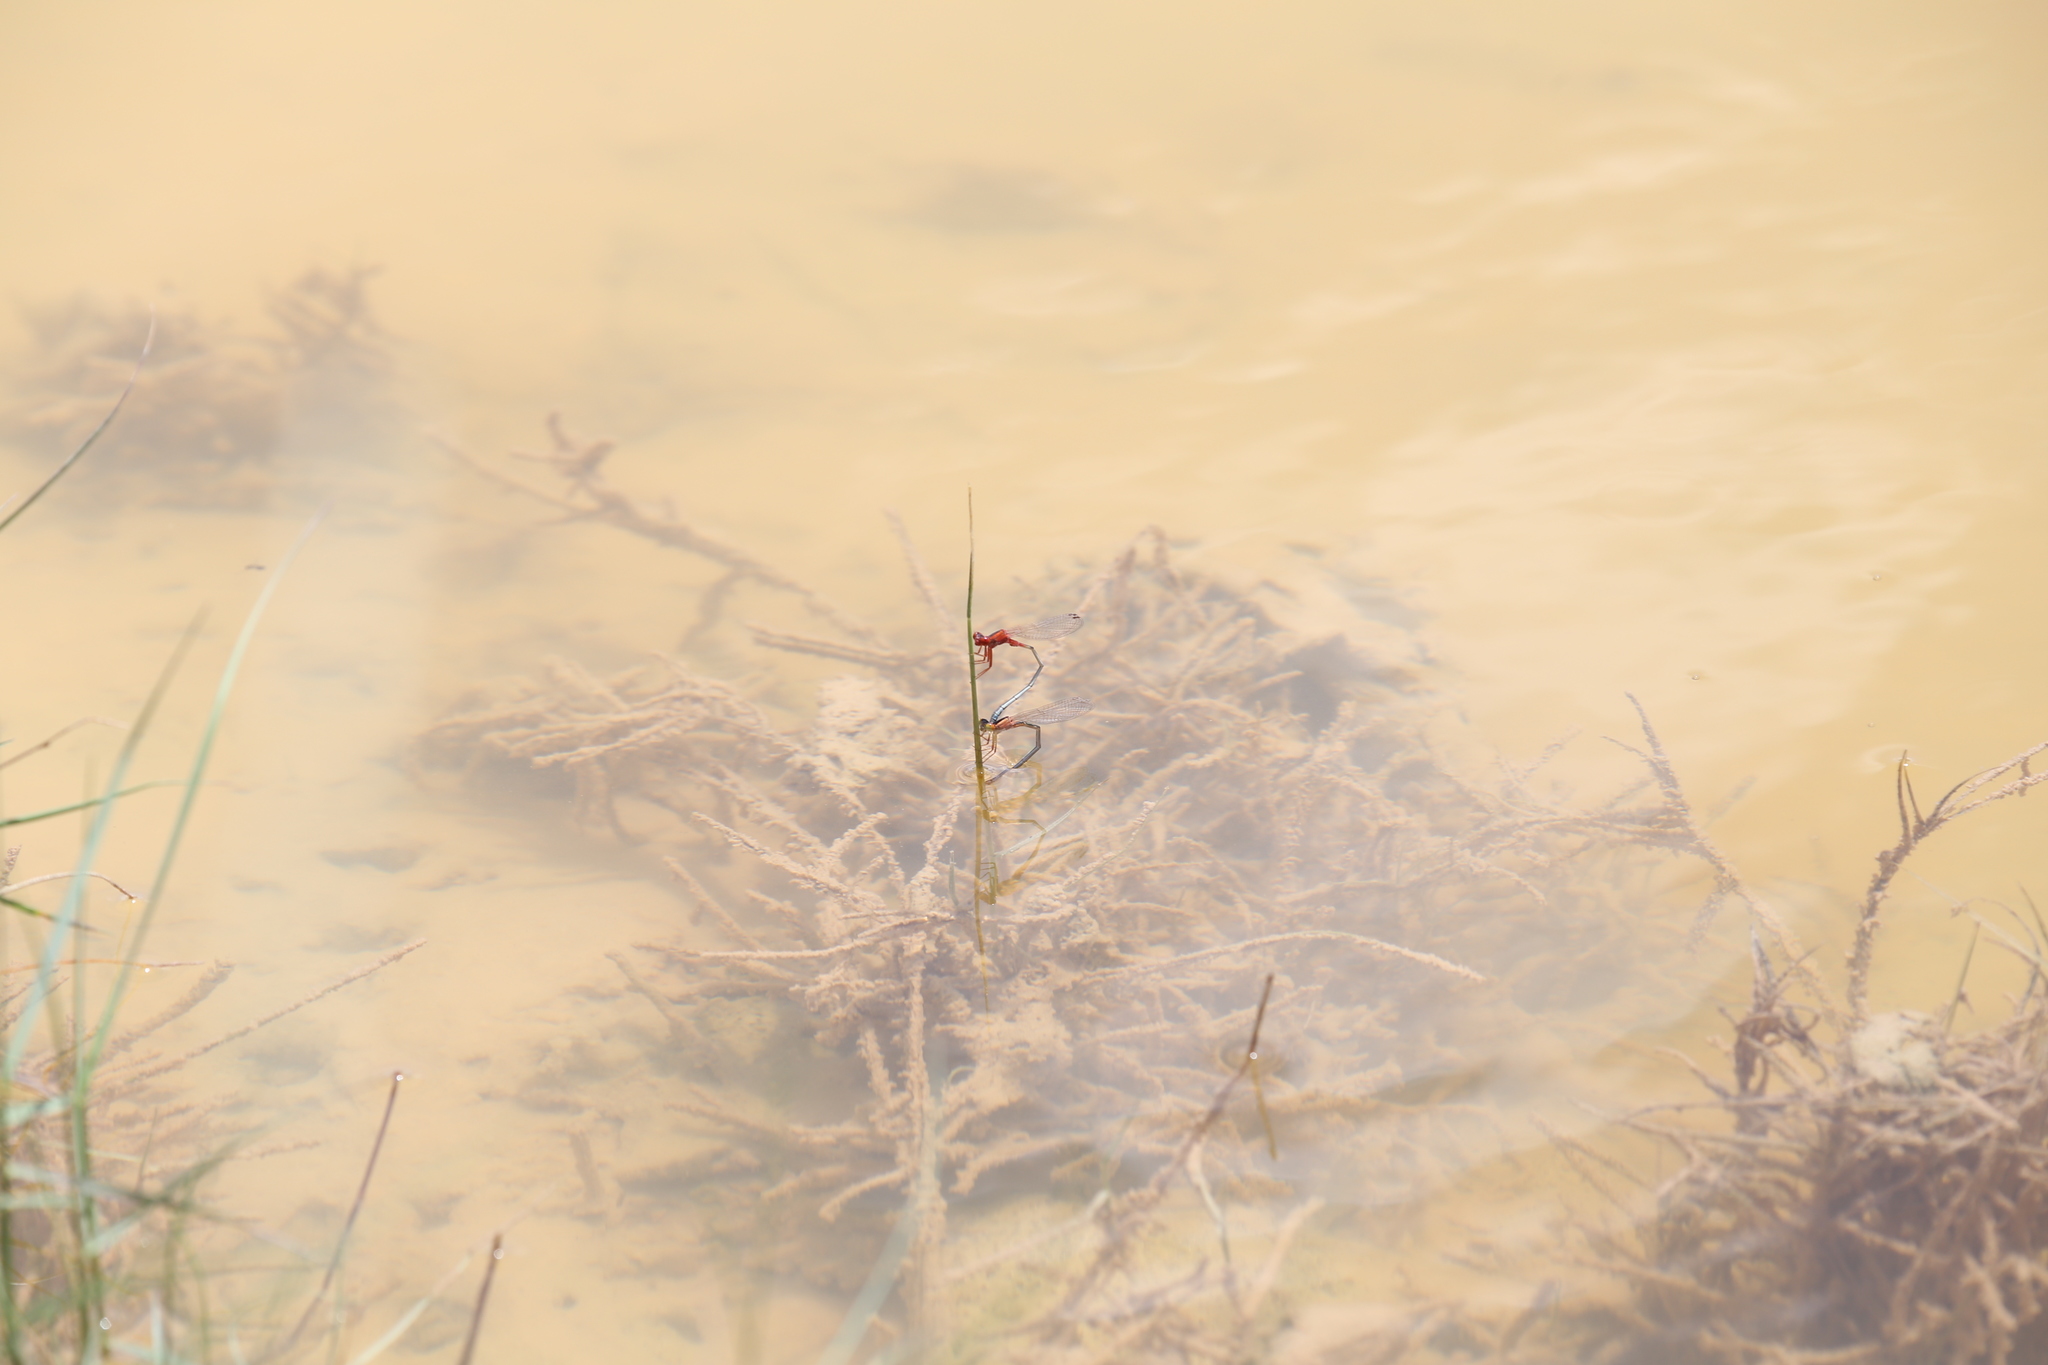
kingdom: Animalia
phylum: Arthropoda
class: Insecta
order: Odonata
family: Coenagrionidae
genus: Xanthagrion
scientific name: Xanthagrion erythroneurum
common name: Red and blue damsel
